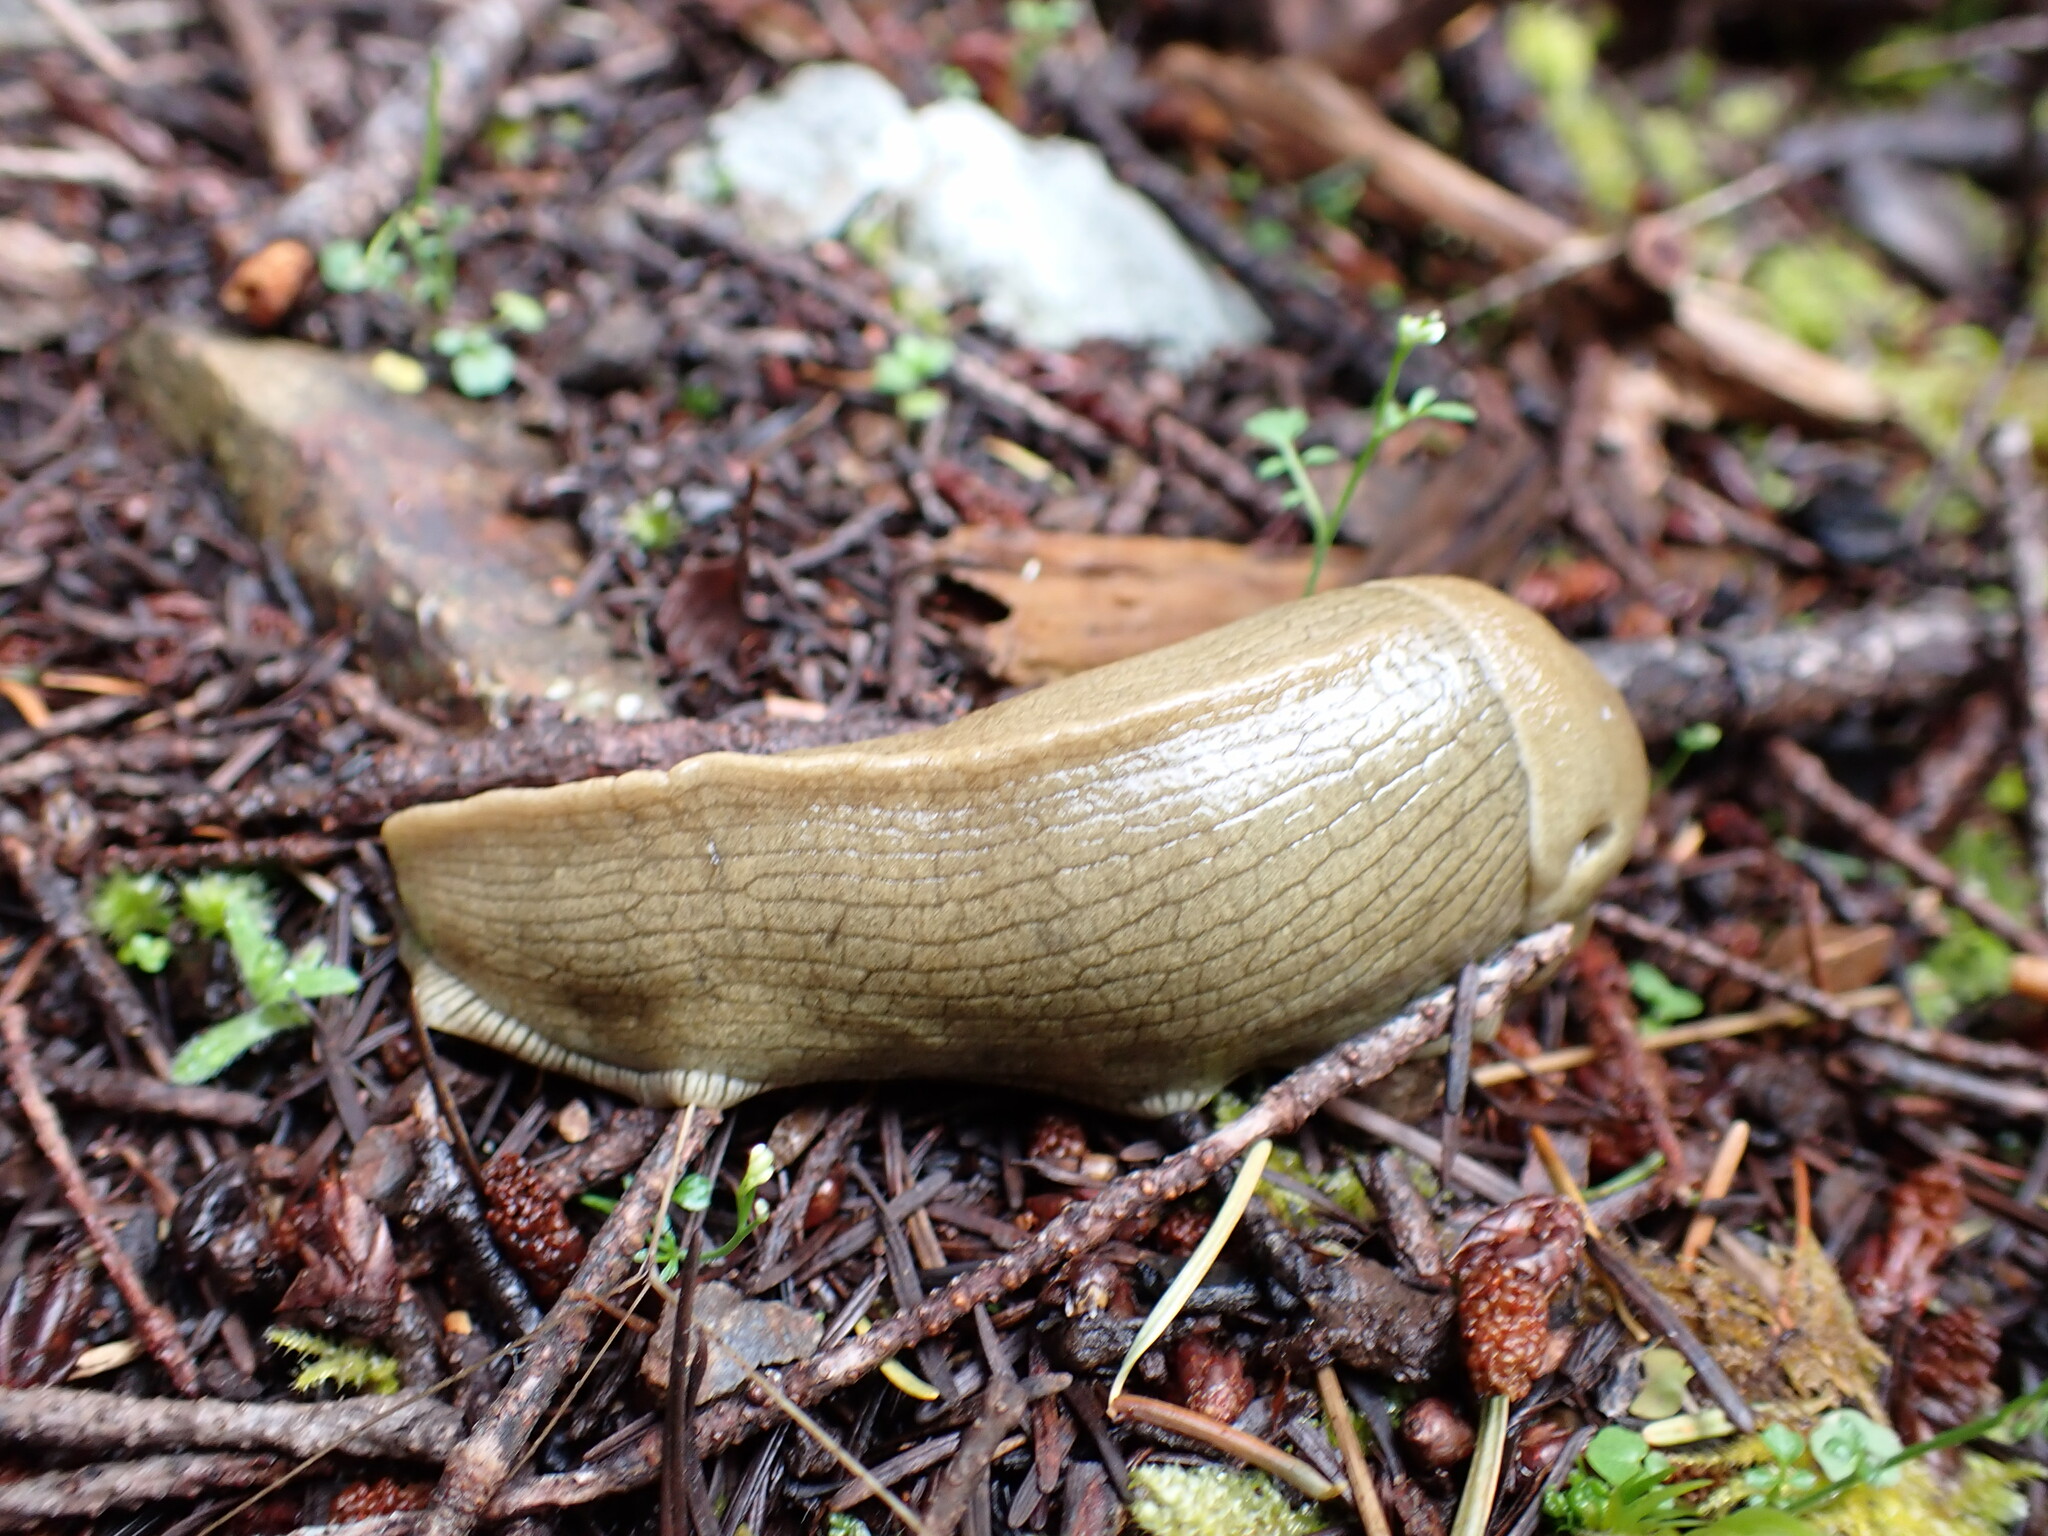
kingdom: Animalia
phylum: Mollusca
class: Gastropoda
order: Stylommatophora
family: Ariolimacidae
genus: Ariolimax
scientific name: Ariolimax columbianus
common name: Pacific banana slug
